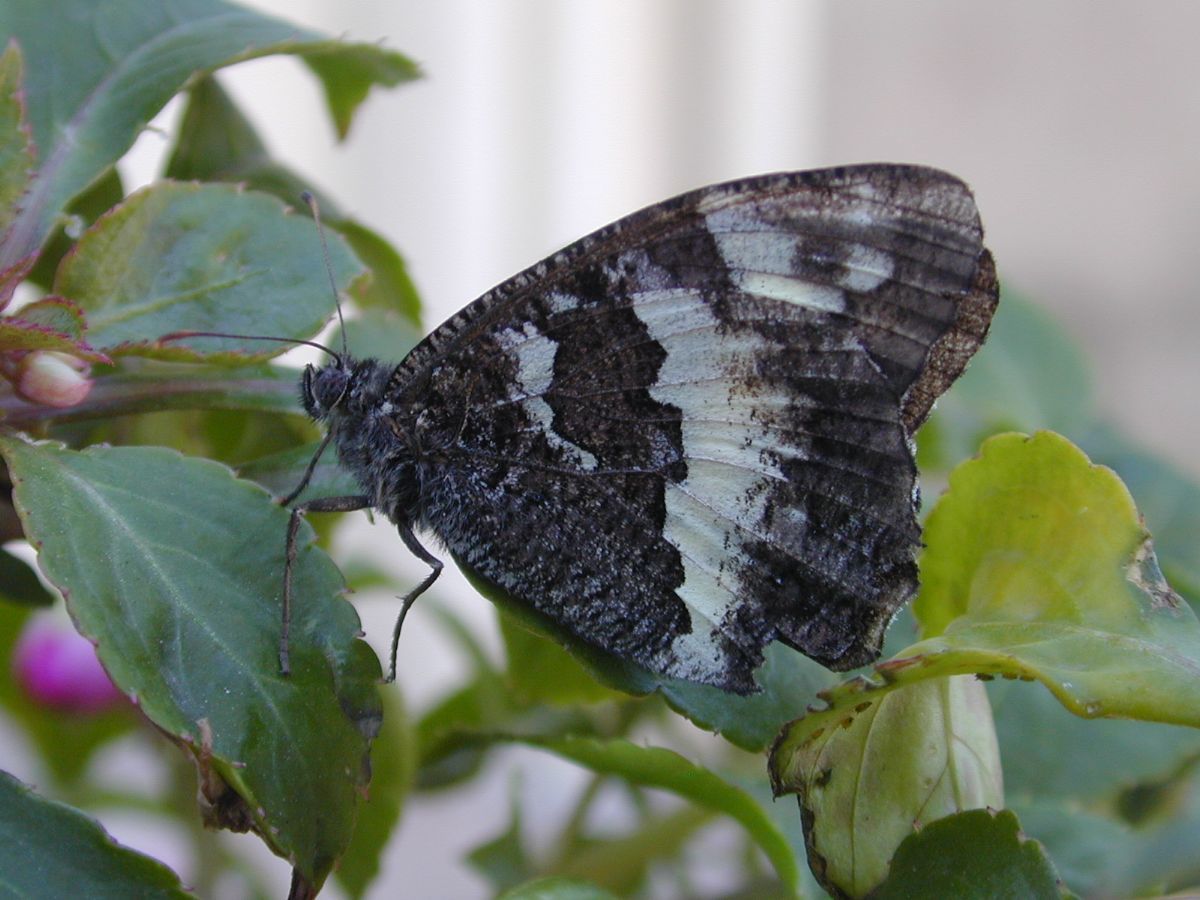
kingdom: Animalia
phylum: Arthropoda
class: Insecta
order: Lepidoptera
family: Lycaenidae
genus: Loweia
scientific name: Loweia tityrus
